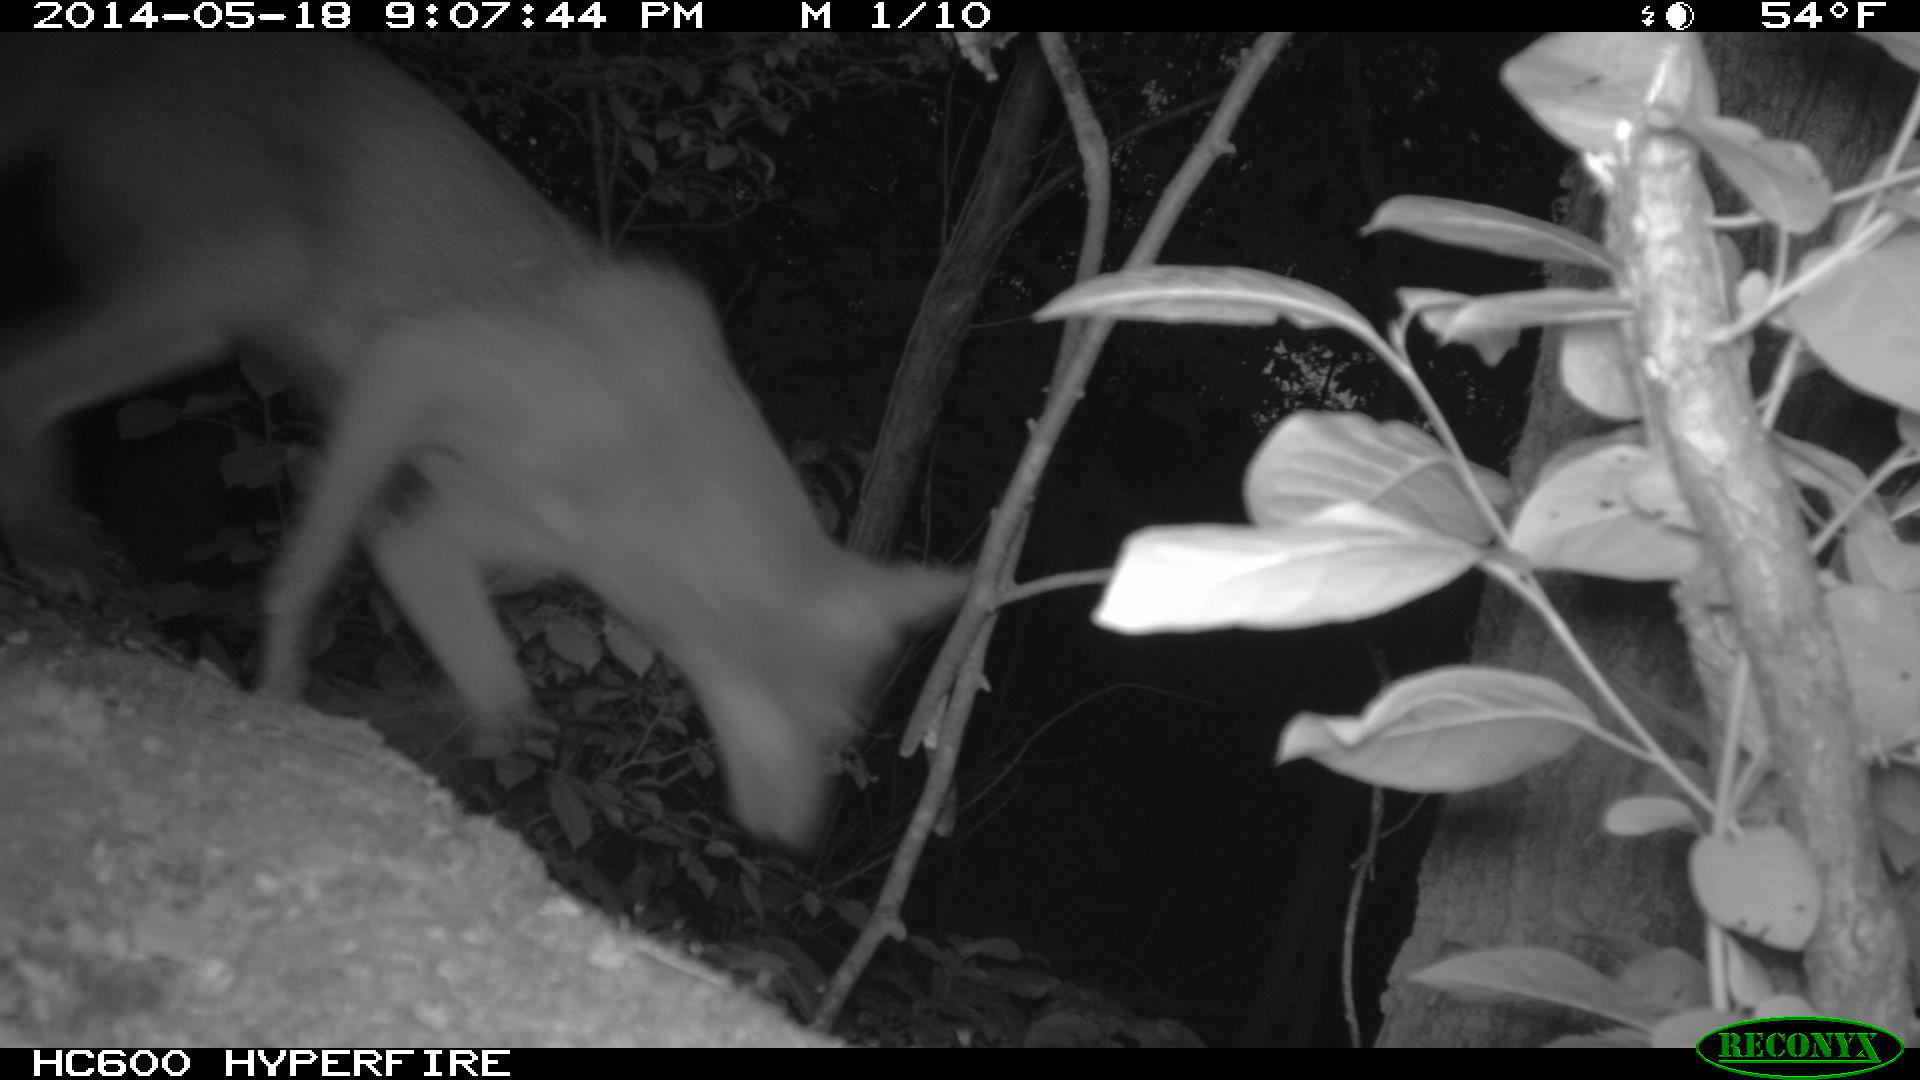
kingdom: Animalia
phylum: Chordata
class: Mammalia
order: Carnivora
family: Canidae
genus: Canis
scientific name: Canis latrans
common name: Coyote
